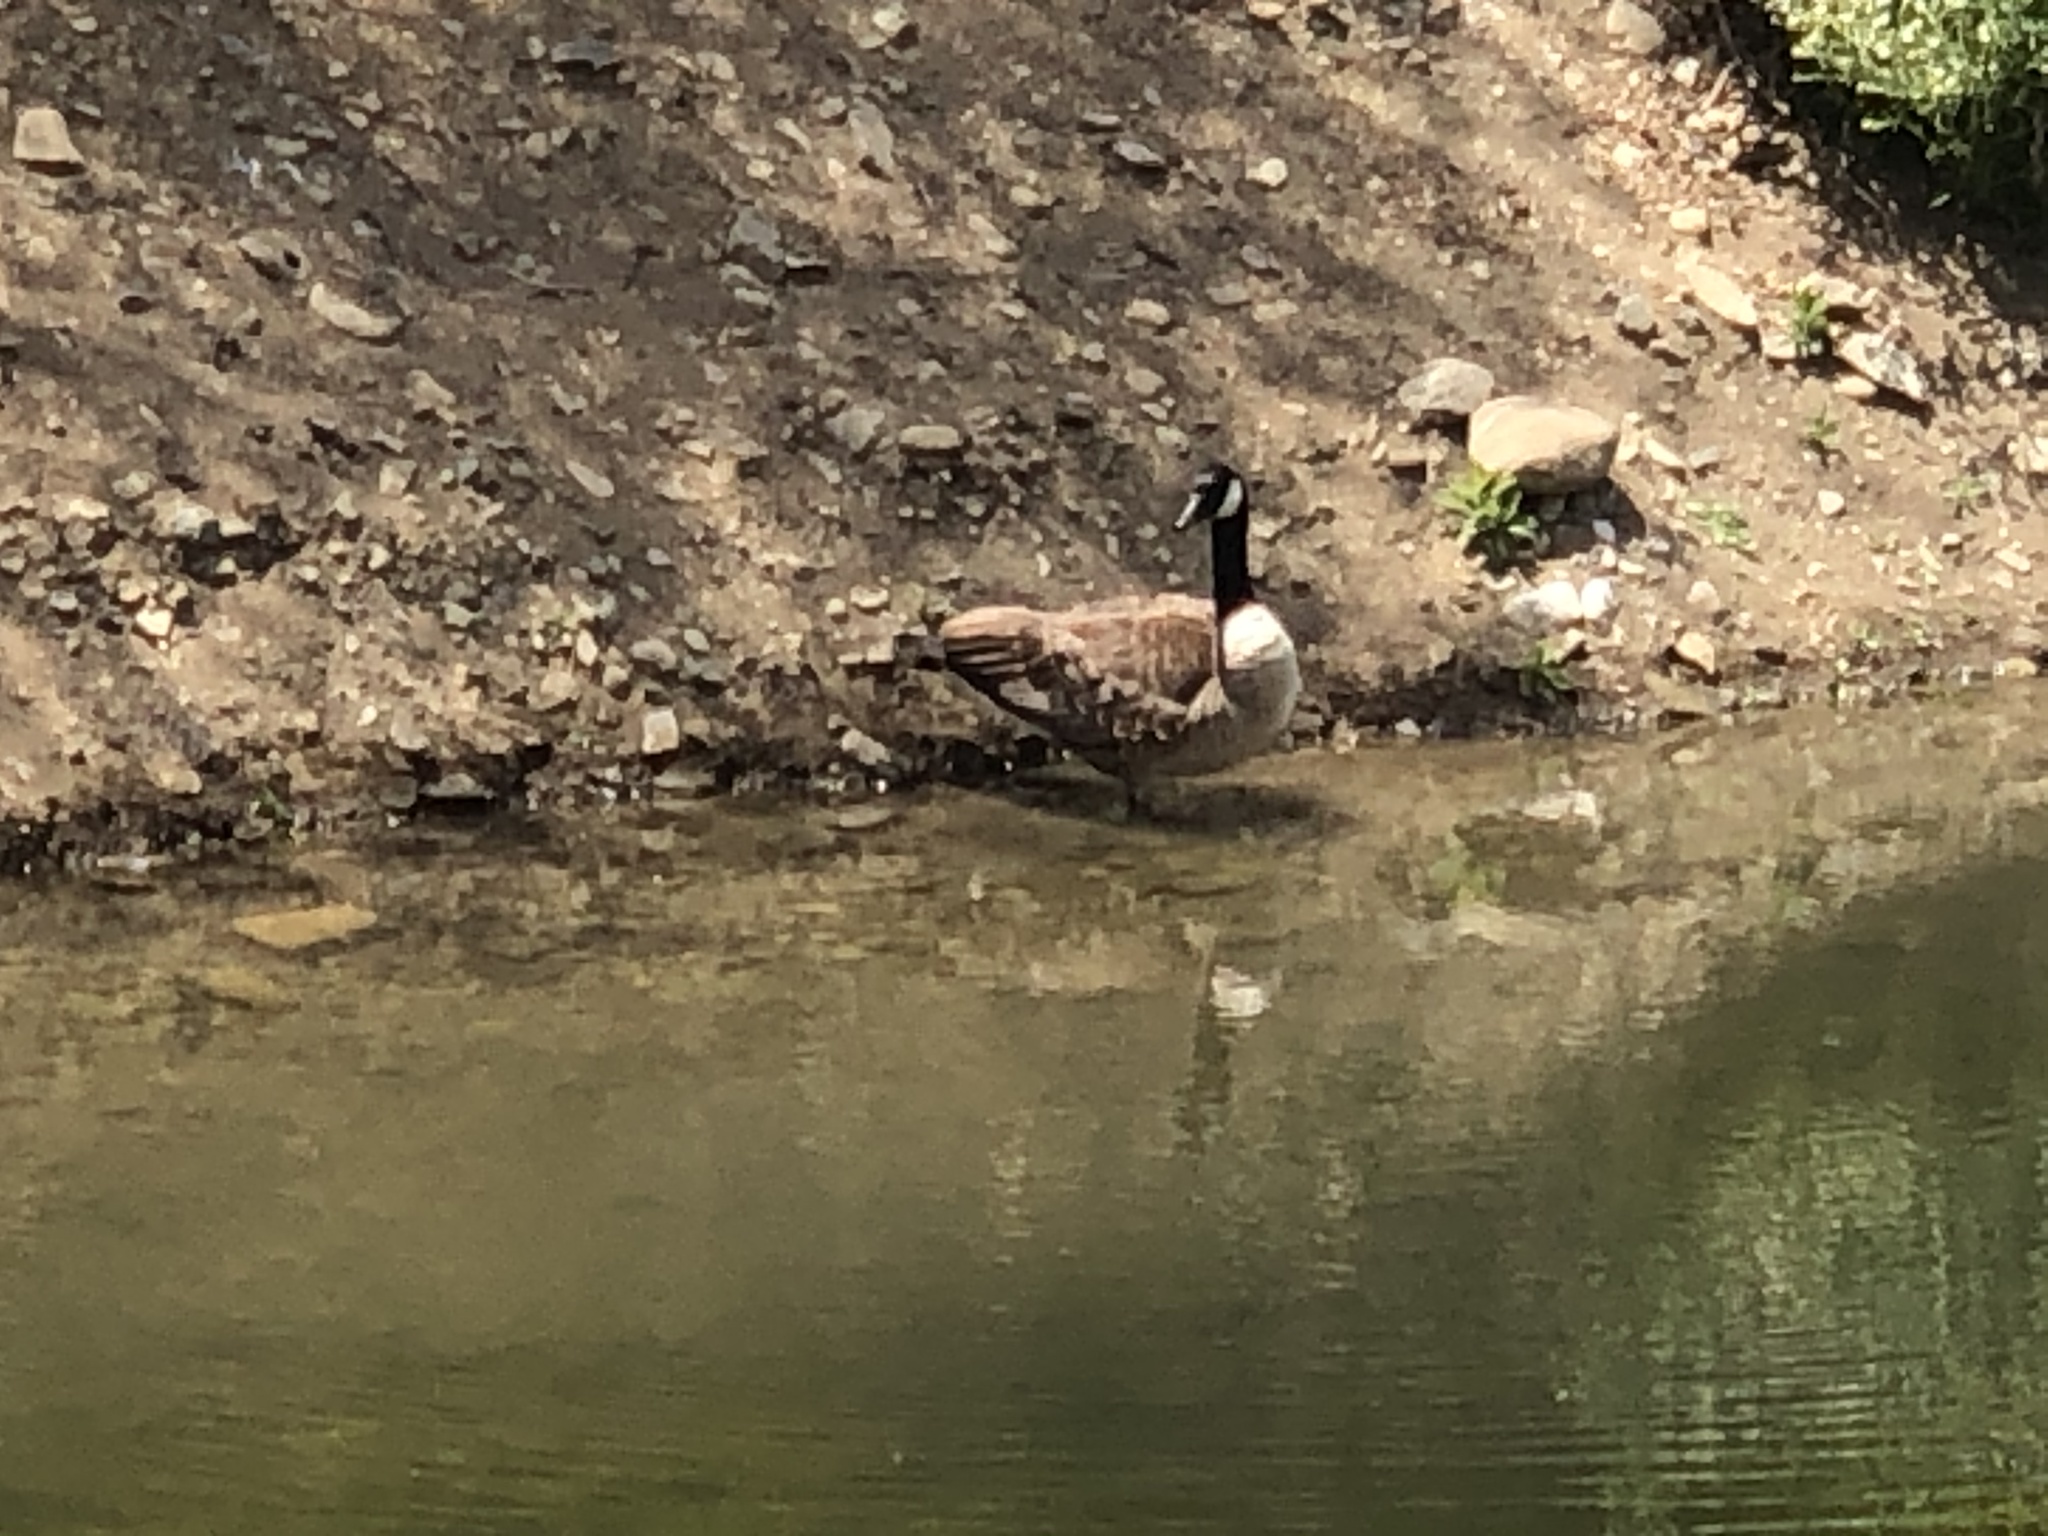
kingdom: Animalia
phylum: Chordata
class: Aves
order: Anseriformes
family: Anatidae
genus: Branta
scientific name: Branta canadensis
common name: Canada goose
